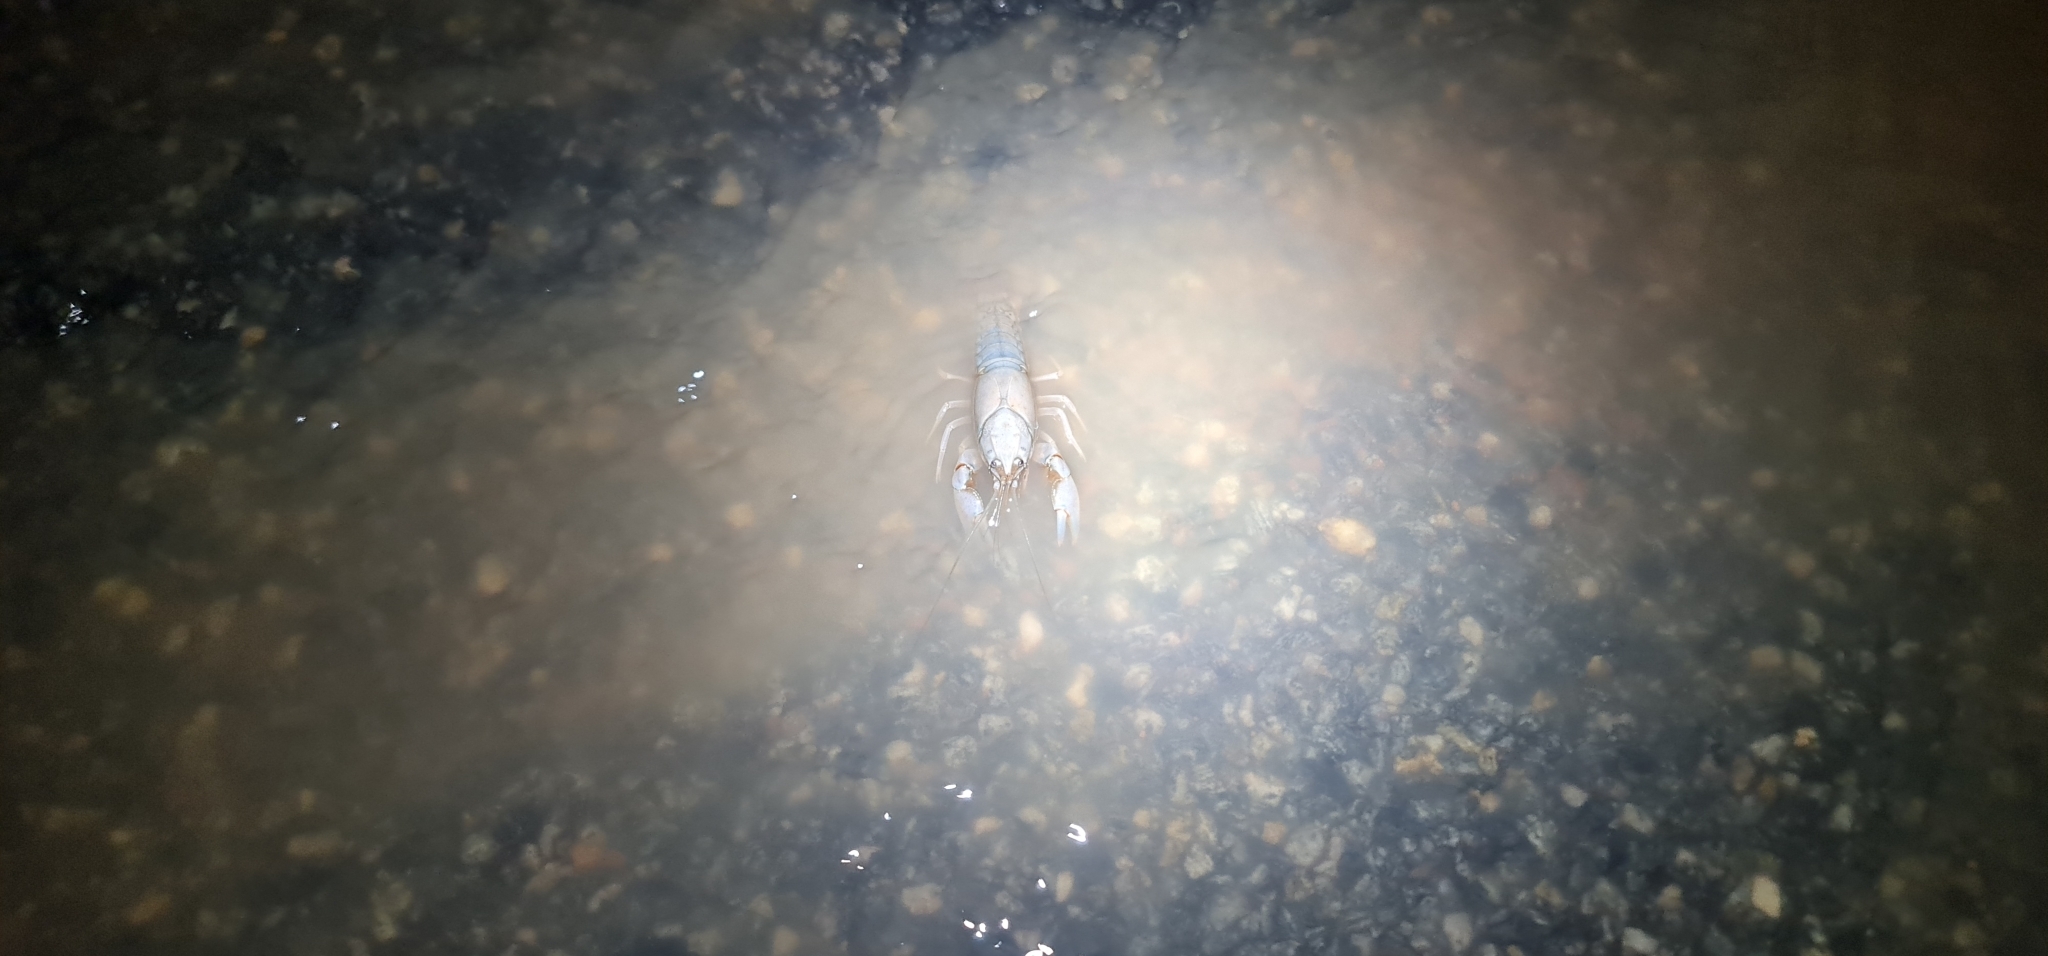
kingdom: Animalia
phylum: Arthropoda
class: Malacostraca
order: Decapoda
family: Parastacidae
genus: Cherax
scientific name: Cherax destructor
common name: Yabby
